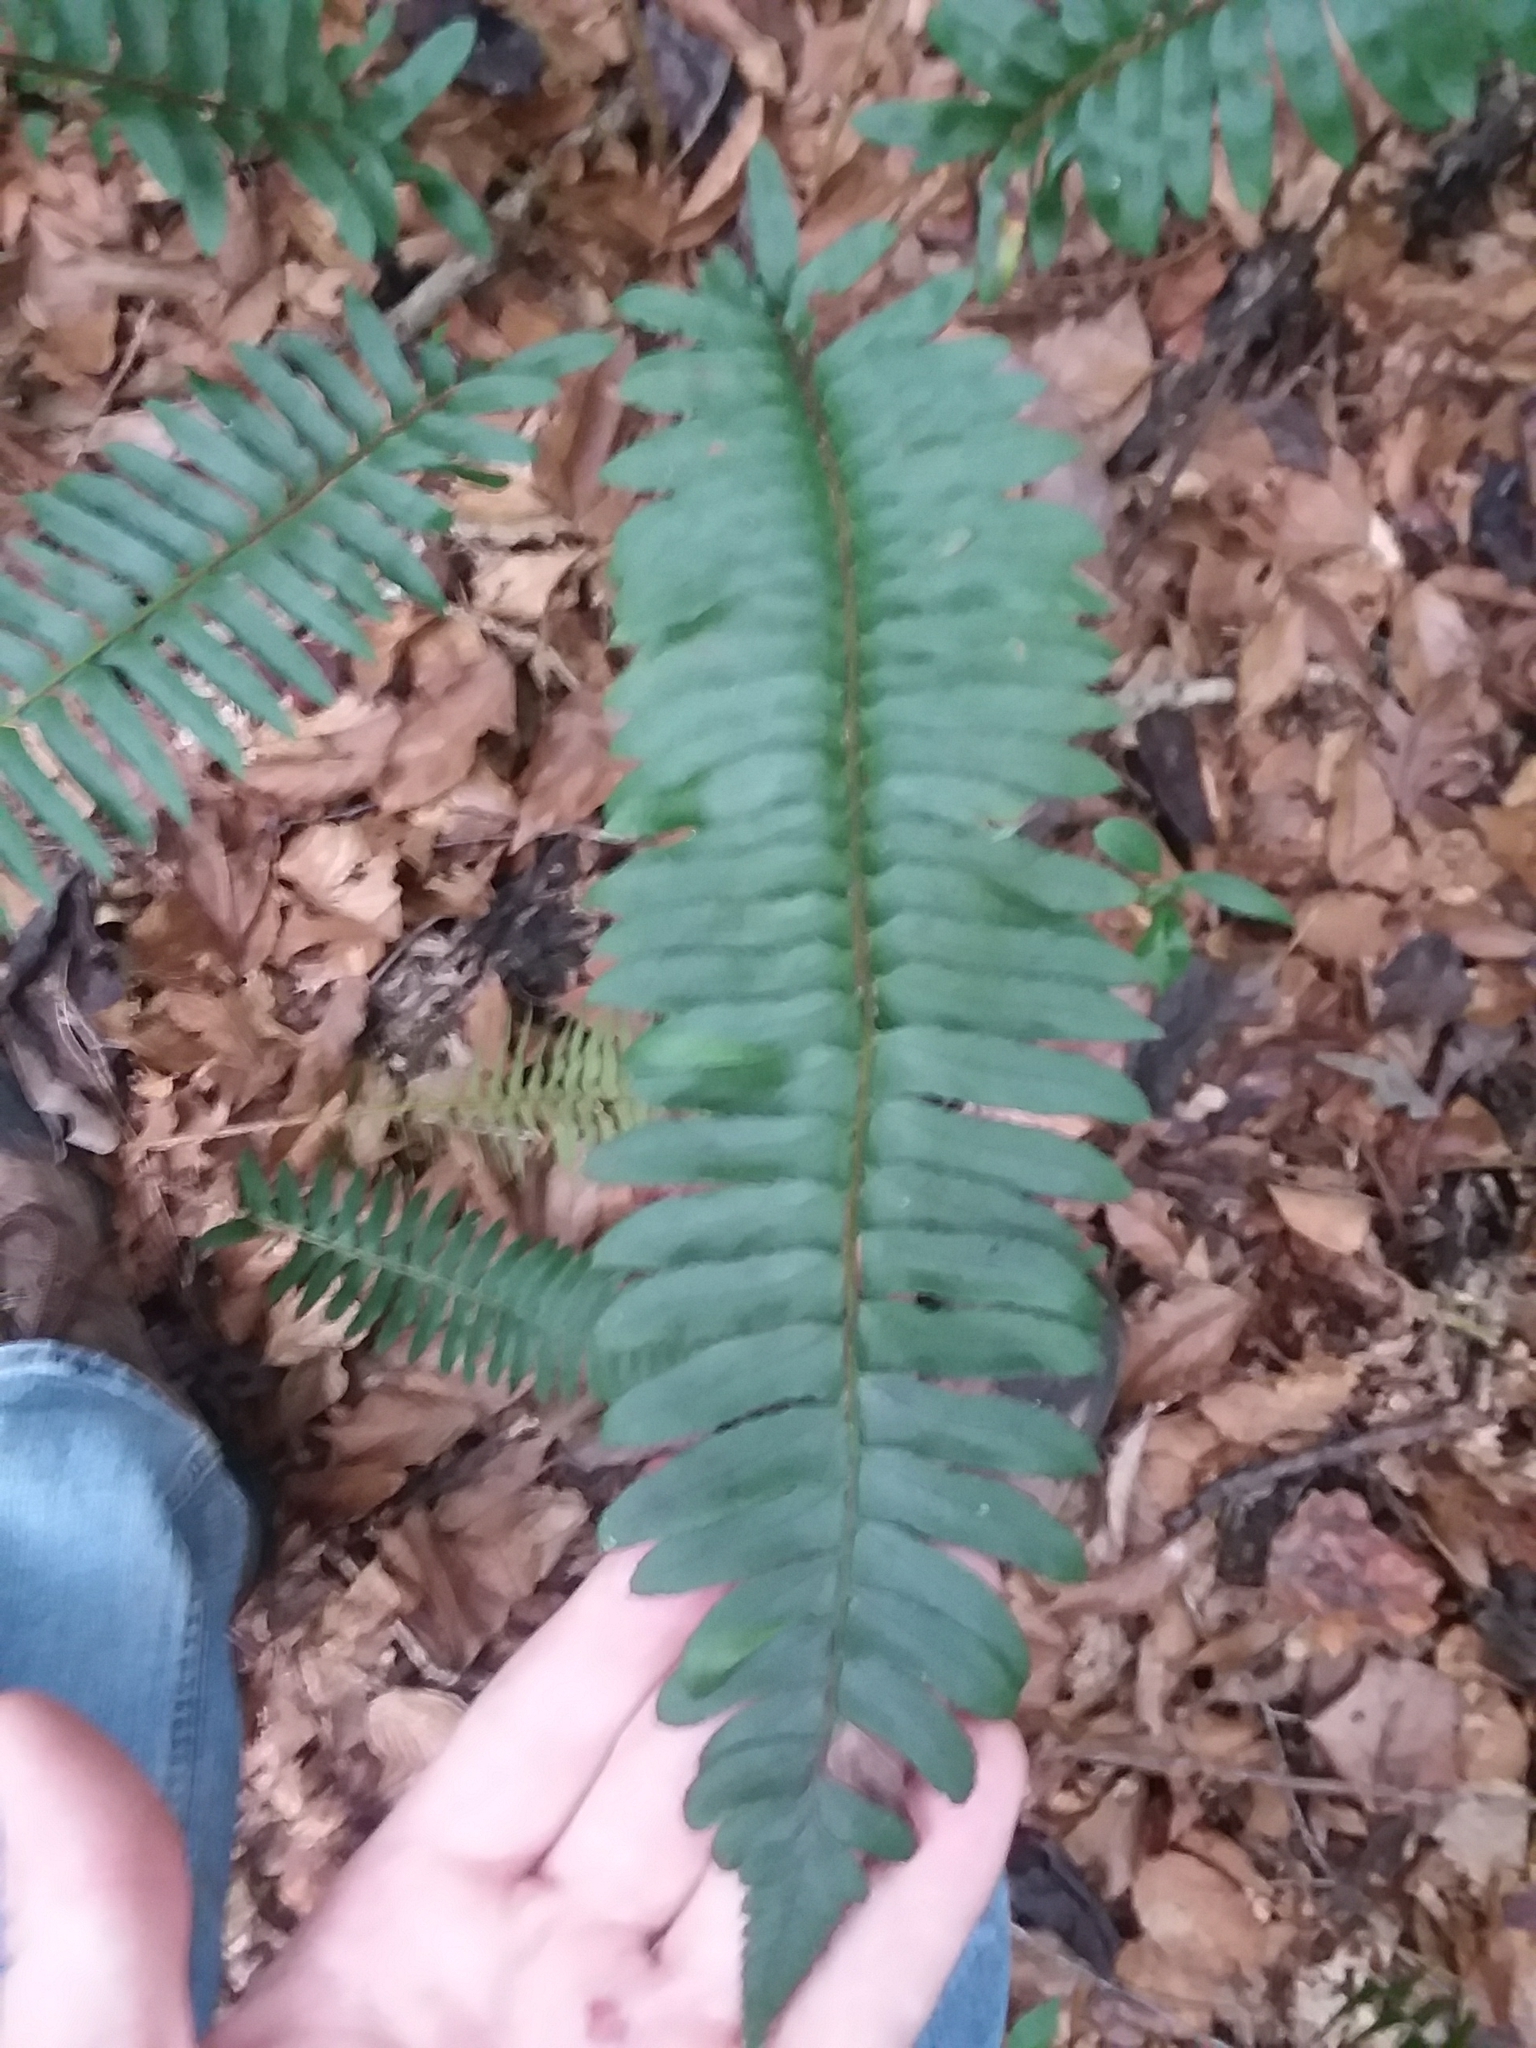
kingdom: Plantae
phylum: Tracheophyta
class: Polypodiopsida
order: Polypodiales
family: Dryopteridaceae
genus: Polystichum
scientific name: Polystichum acrostichoides
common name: Christmas fern
